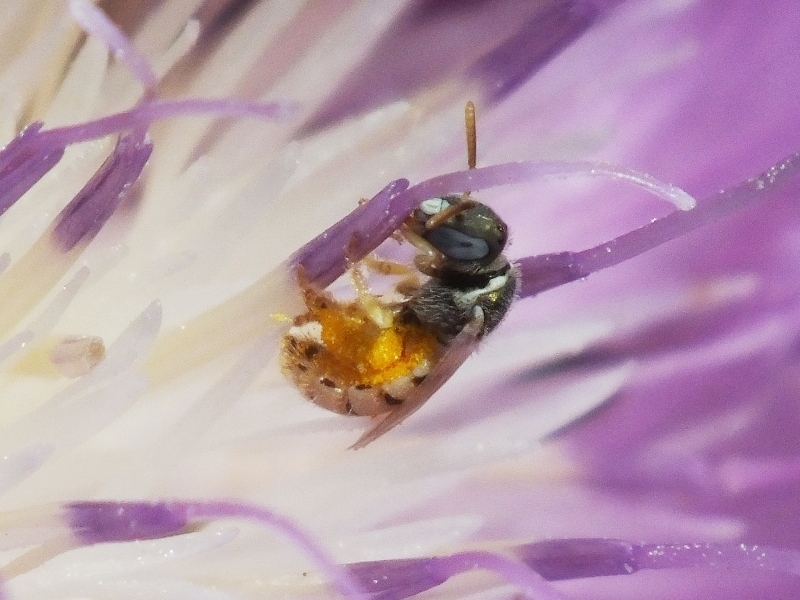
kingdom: Animalia
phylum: Arthropoda
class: Insecta
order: Hymenoptera
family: Halictidae
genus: Nomioides
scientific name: Nomioides minutissimus
